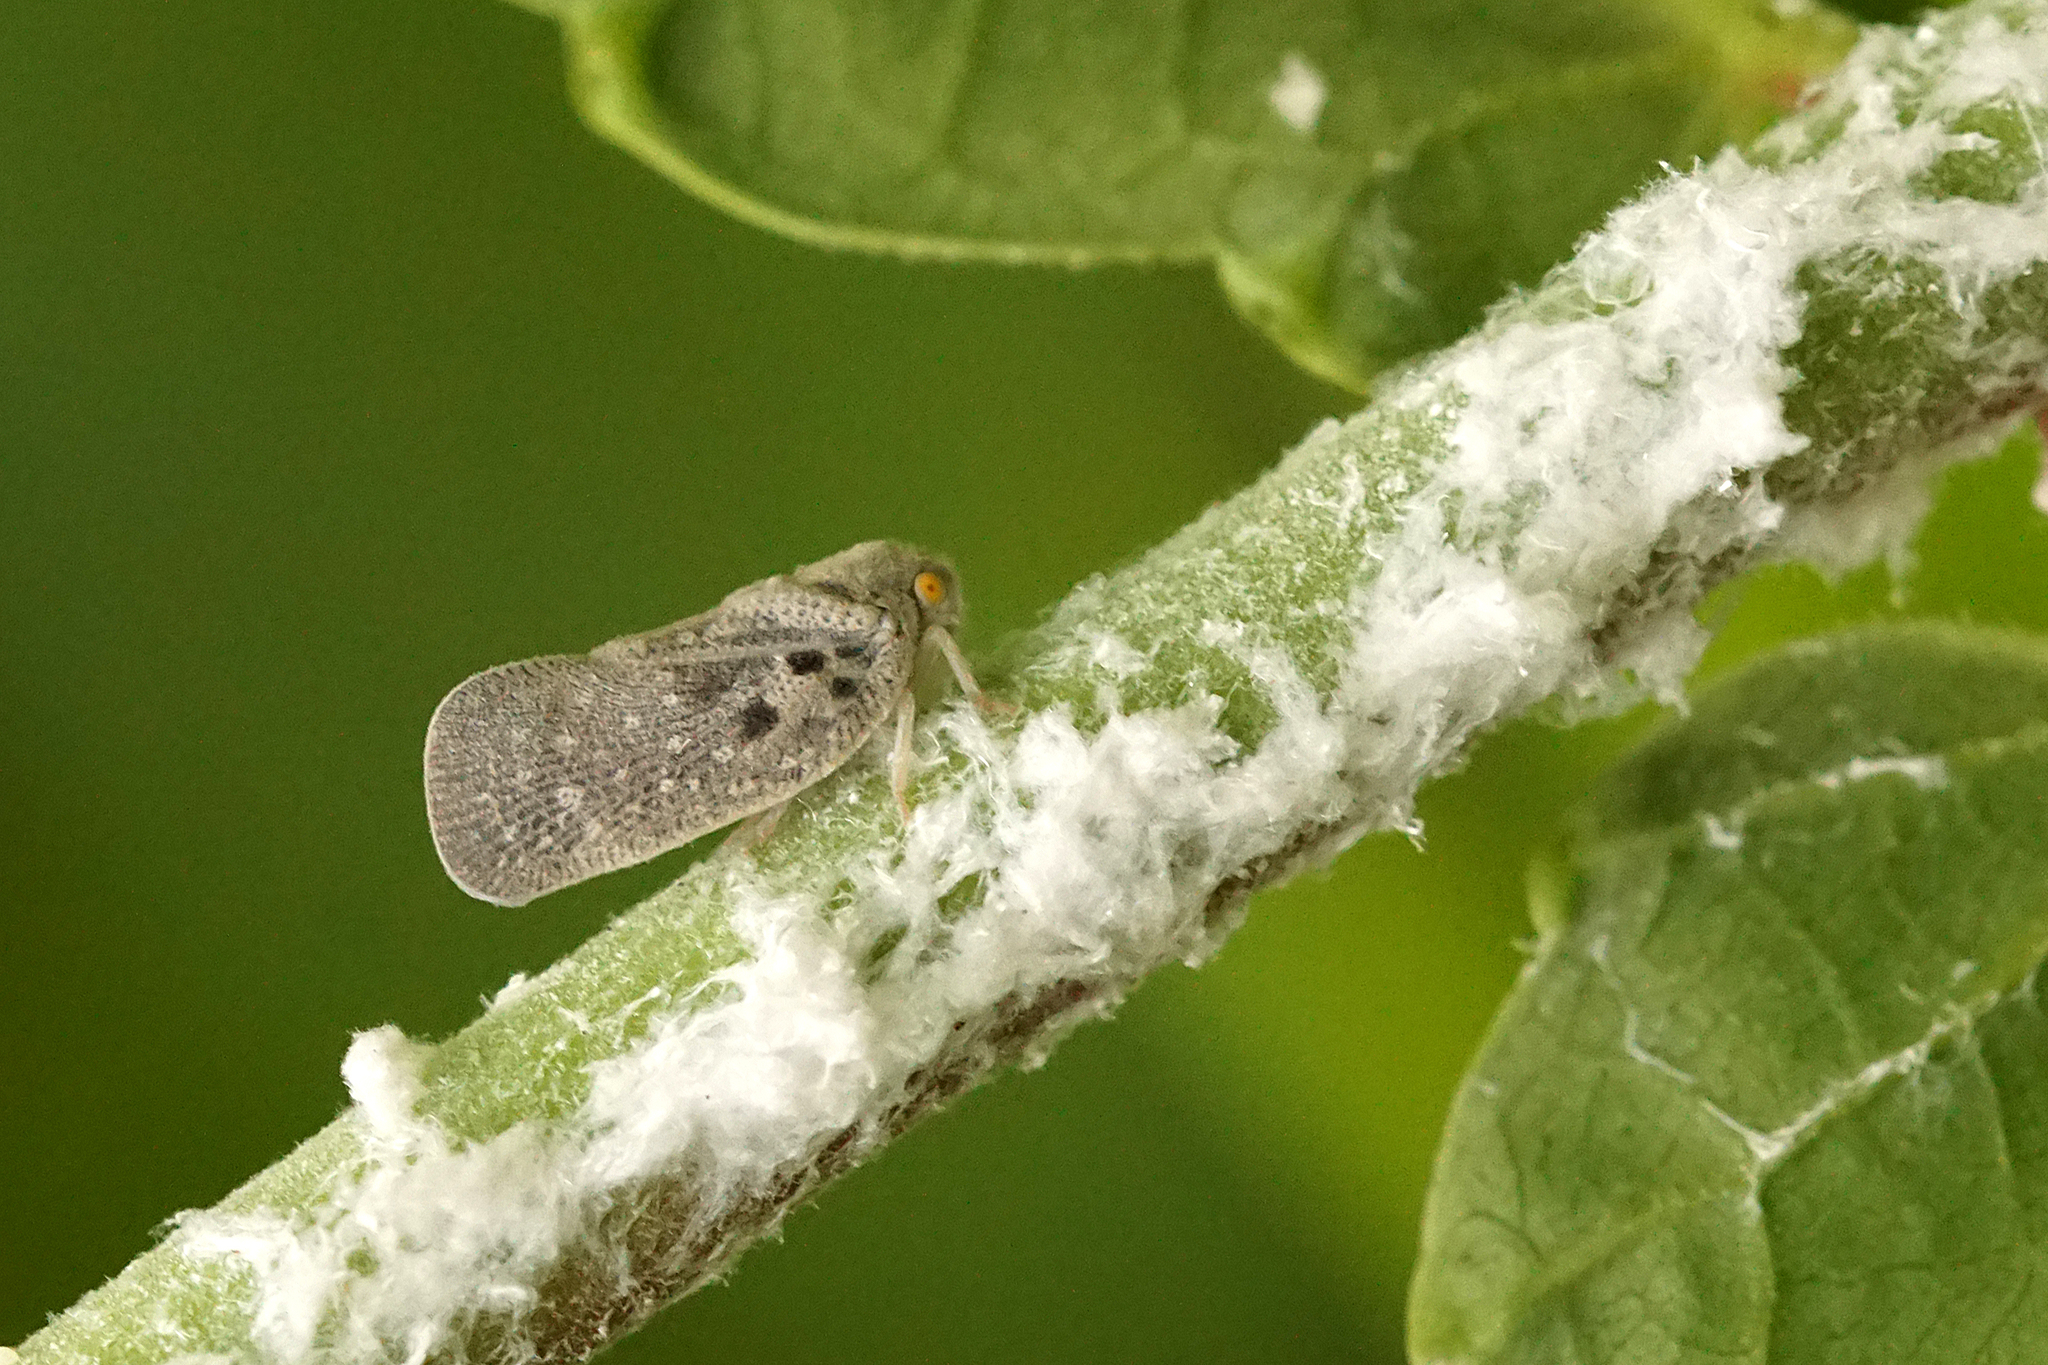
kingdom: Animalia
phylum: Arthropoda
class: Insecta
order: Hemiptera
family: Flatidae
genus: Metcalfa
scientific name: Metcalfa pruinosa
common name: Citrus flatid planthopper
